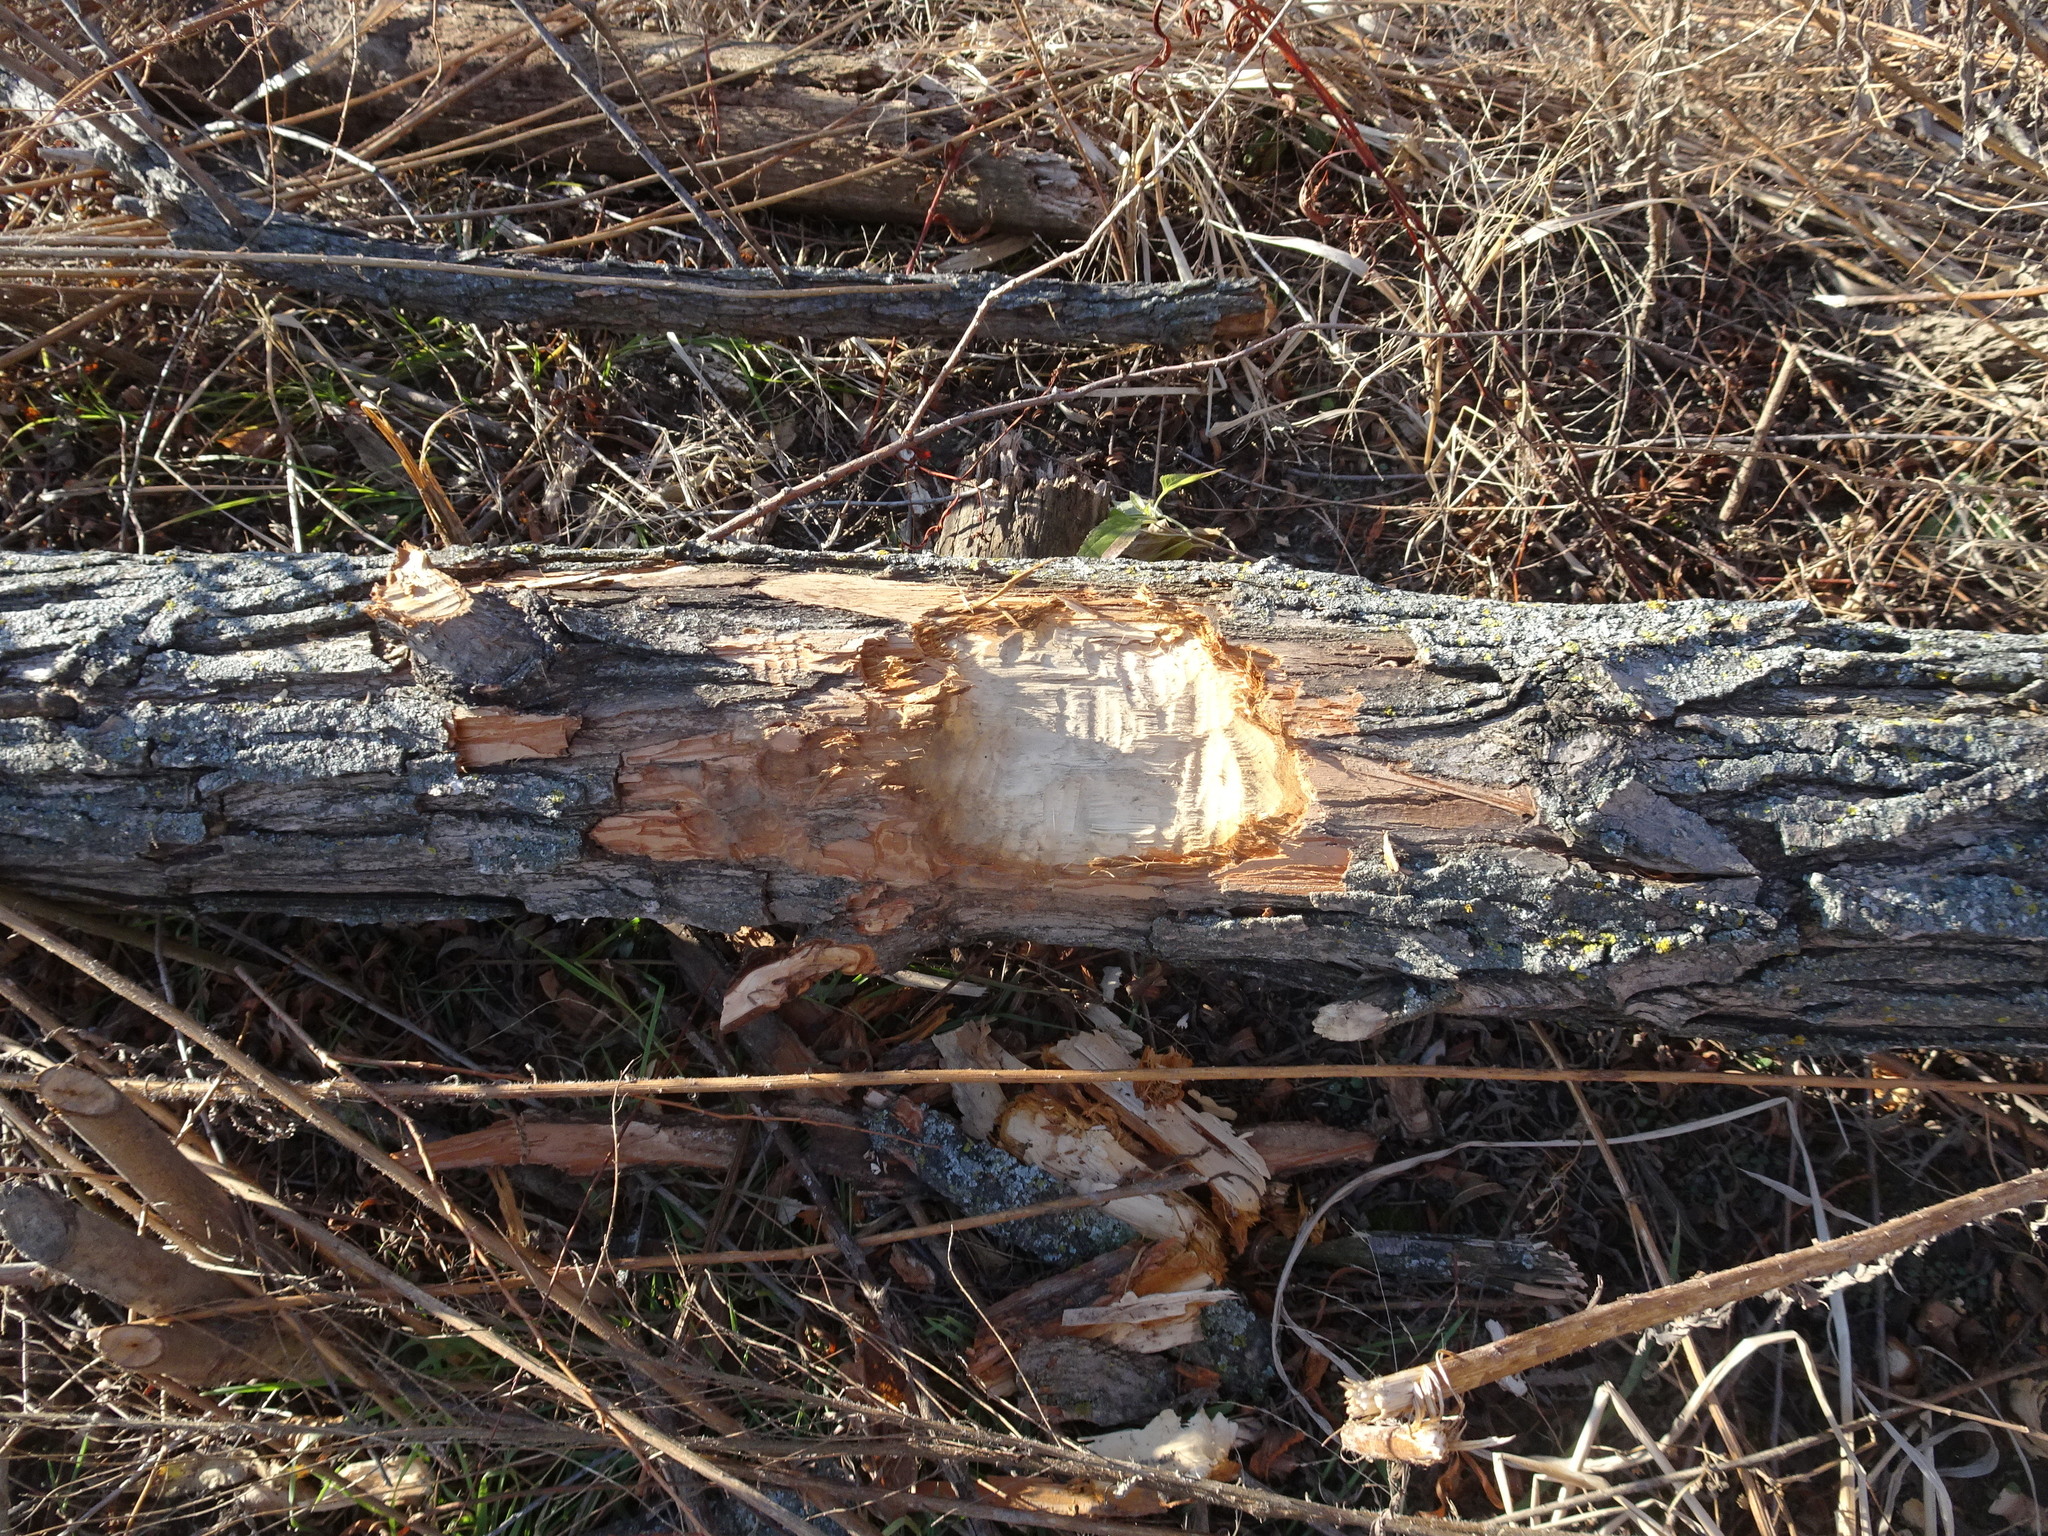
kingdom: Animalia
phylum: Chordata
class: Mammalia
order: Rodentia
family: Castoridae
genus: Castor
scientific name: Castor canadensis
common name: American beaver
